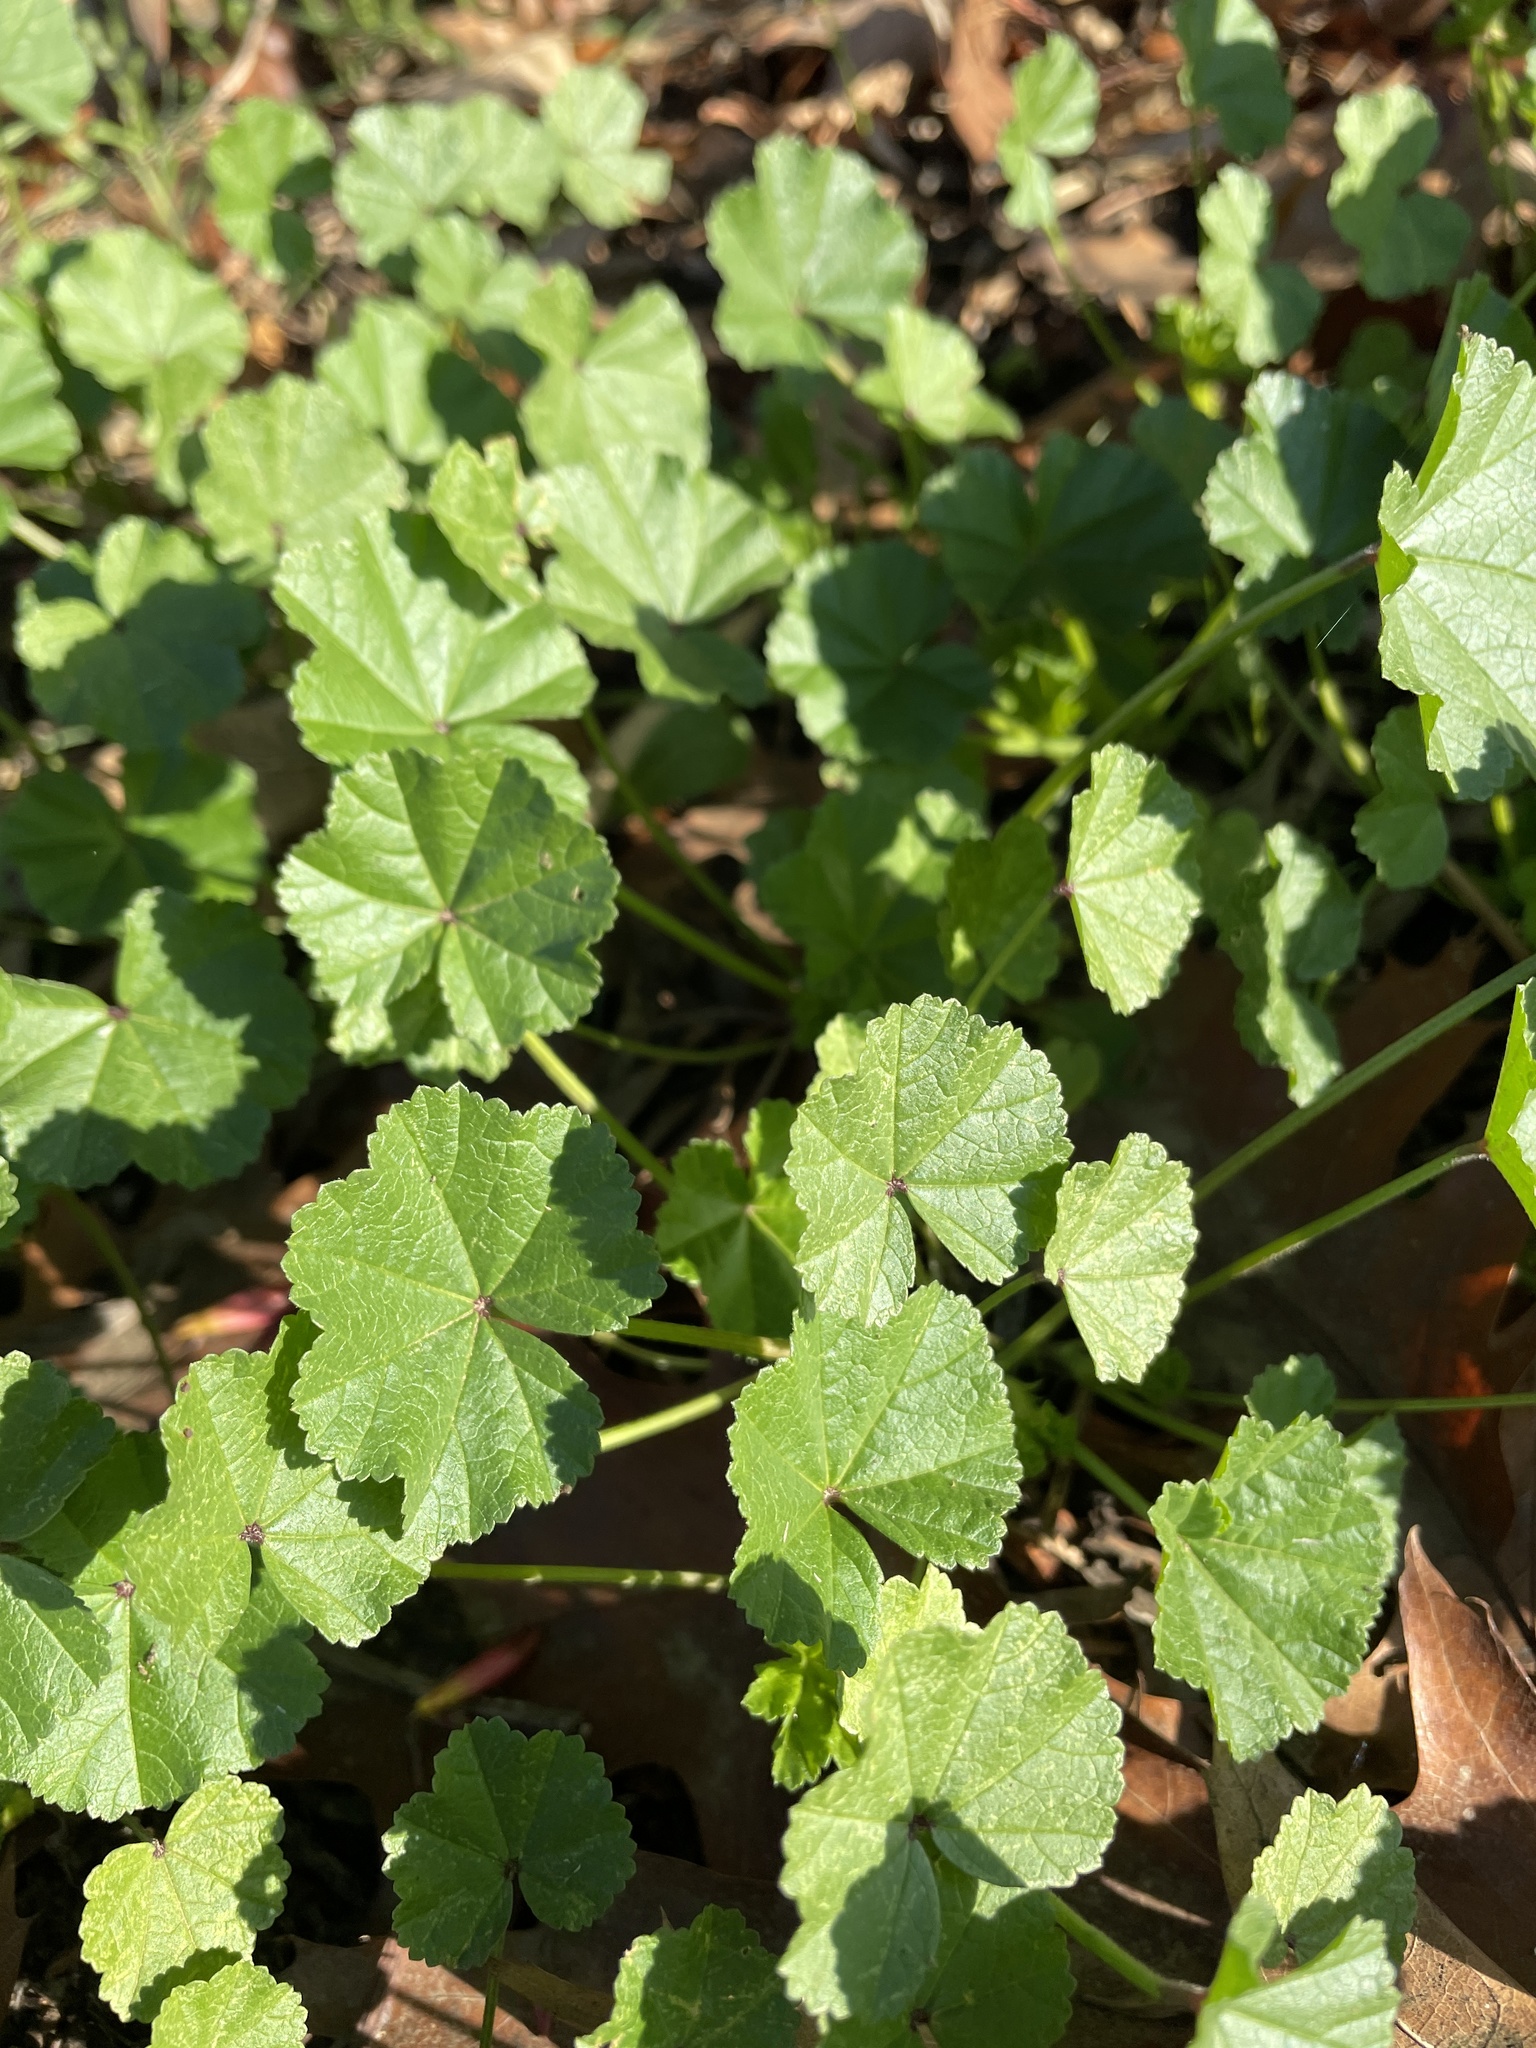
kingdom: Plantae
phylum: Tracheophyta
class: Magnoliopsida
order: Malvales
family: Malvaceae
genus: Malva
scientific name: Malva
